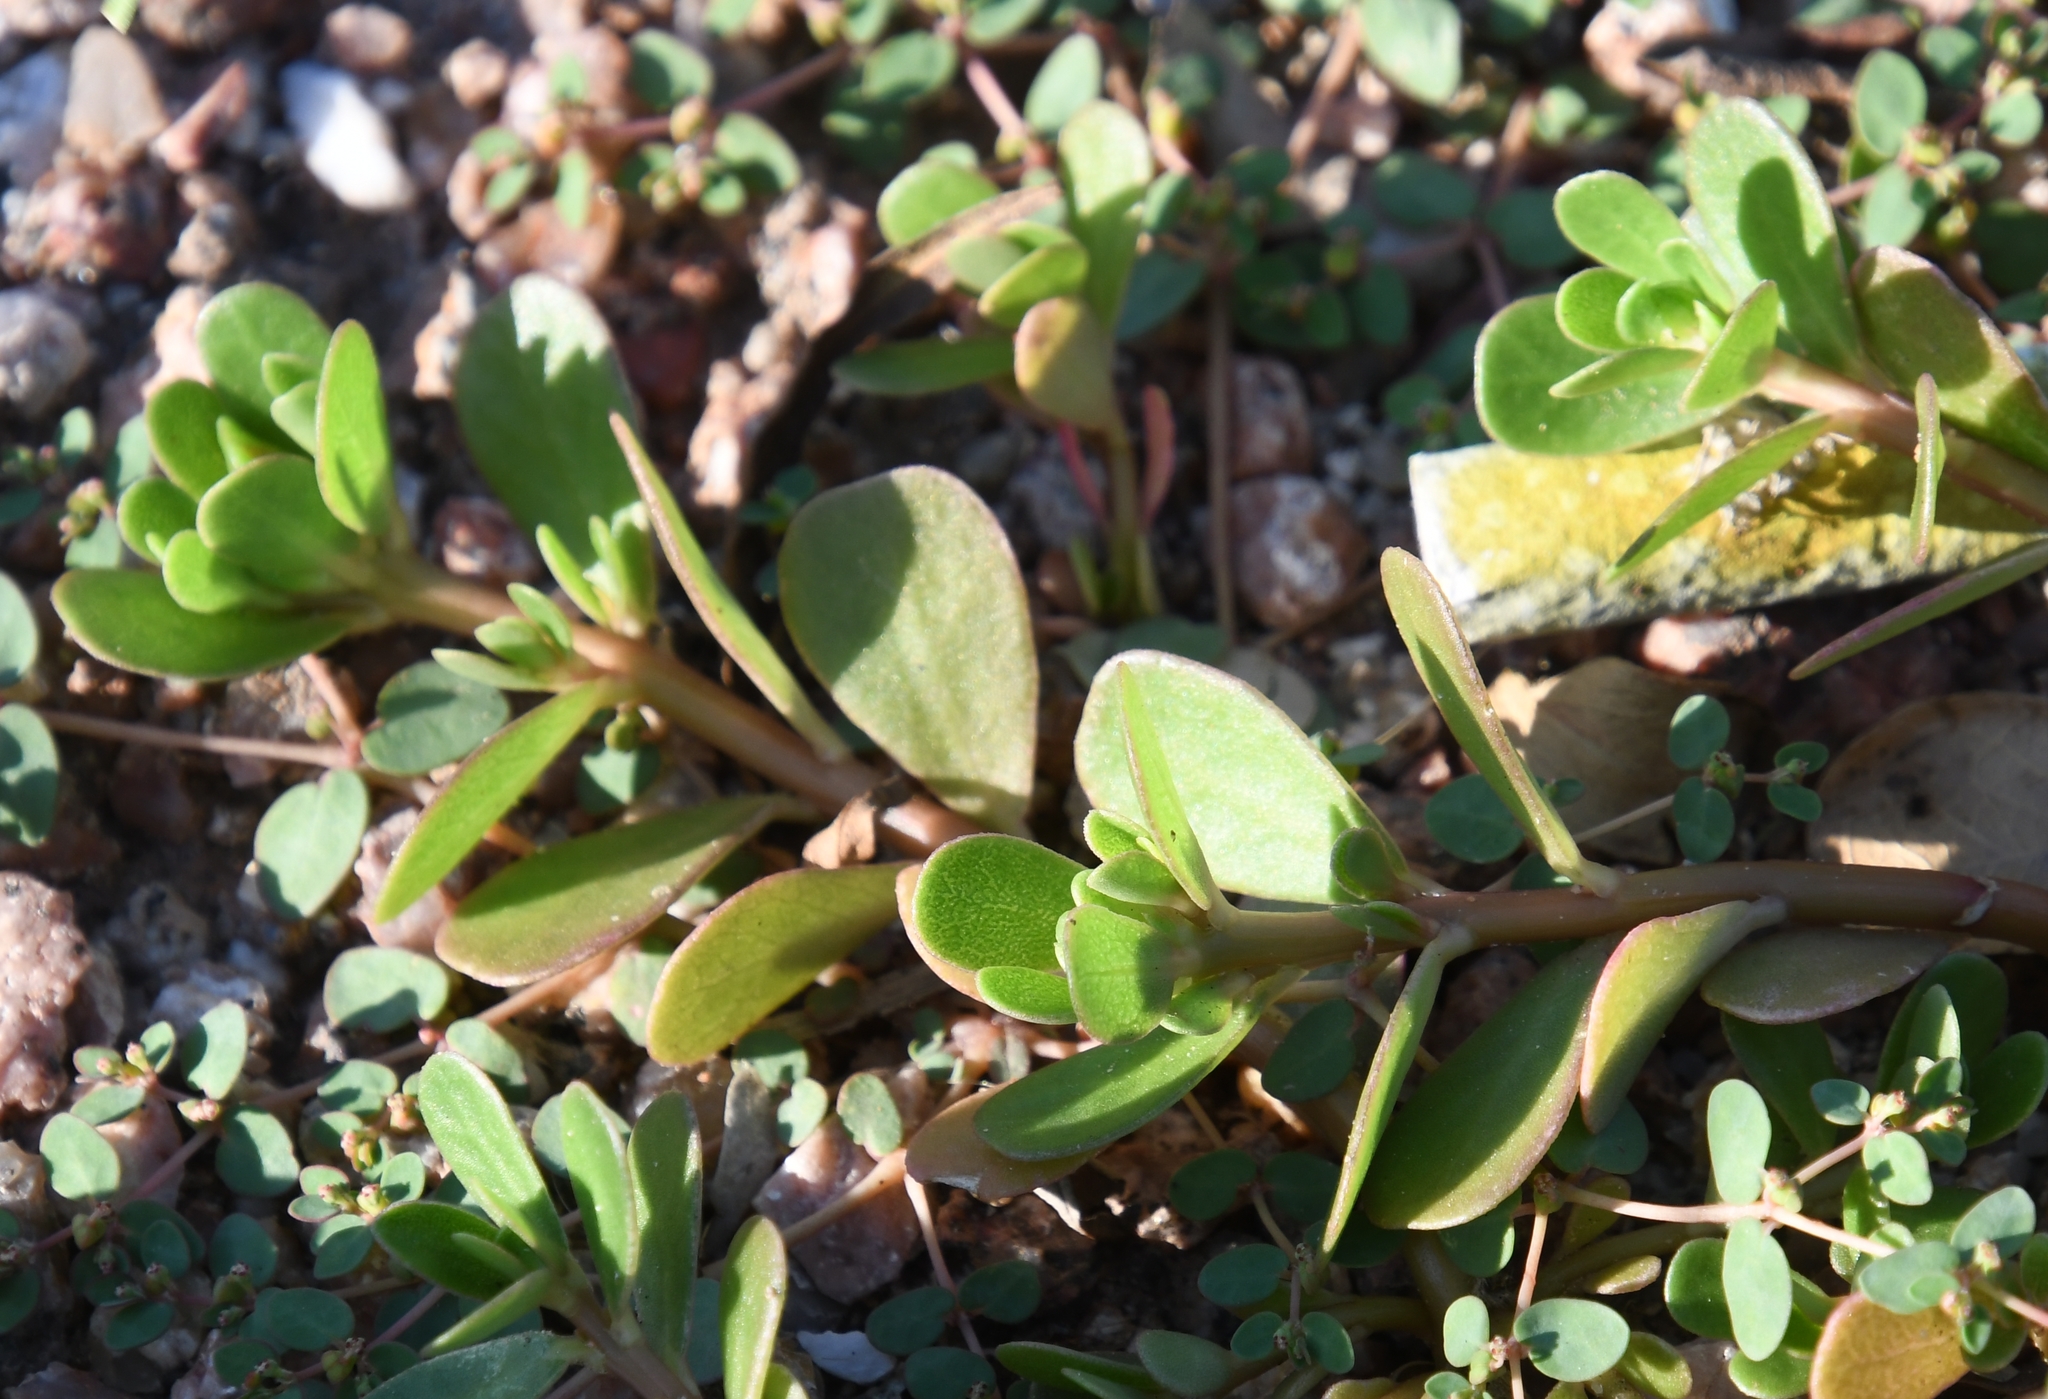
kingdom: Plantae
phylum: Tracheophyta
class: Magnoliopsida
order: Caryophyllales
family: Portulacaceae
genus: Portulaca
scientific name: Portulaca oleracea
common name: Common purslane
